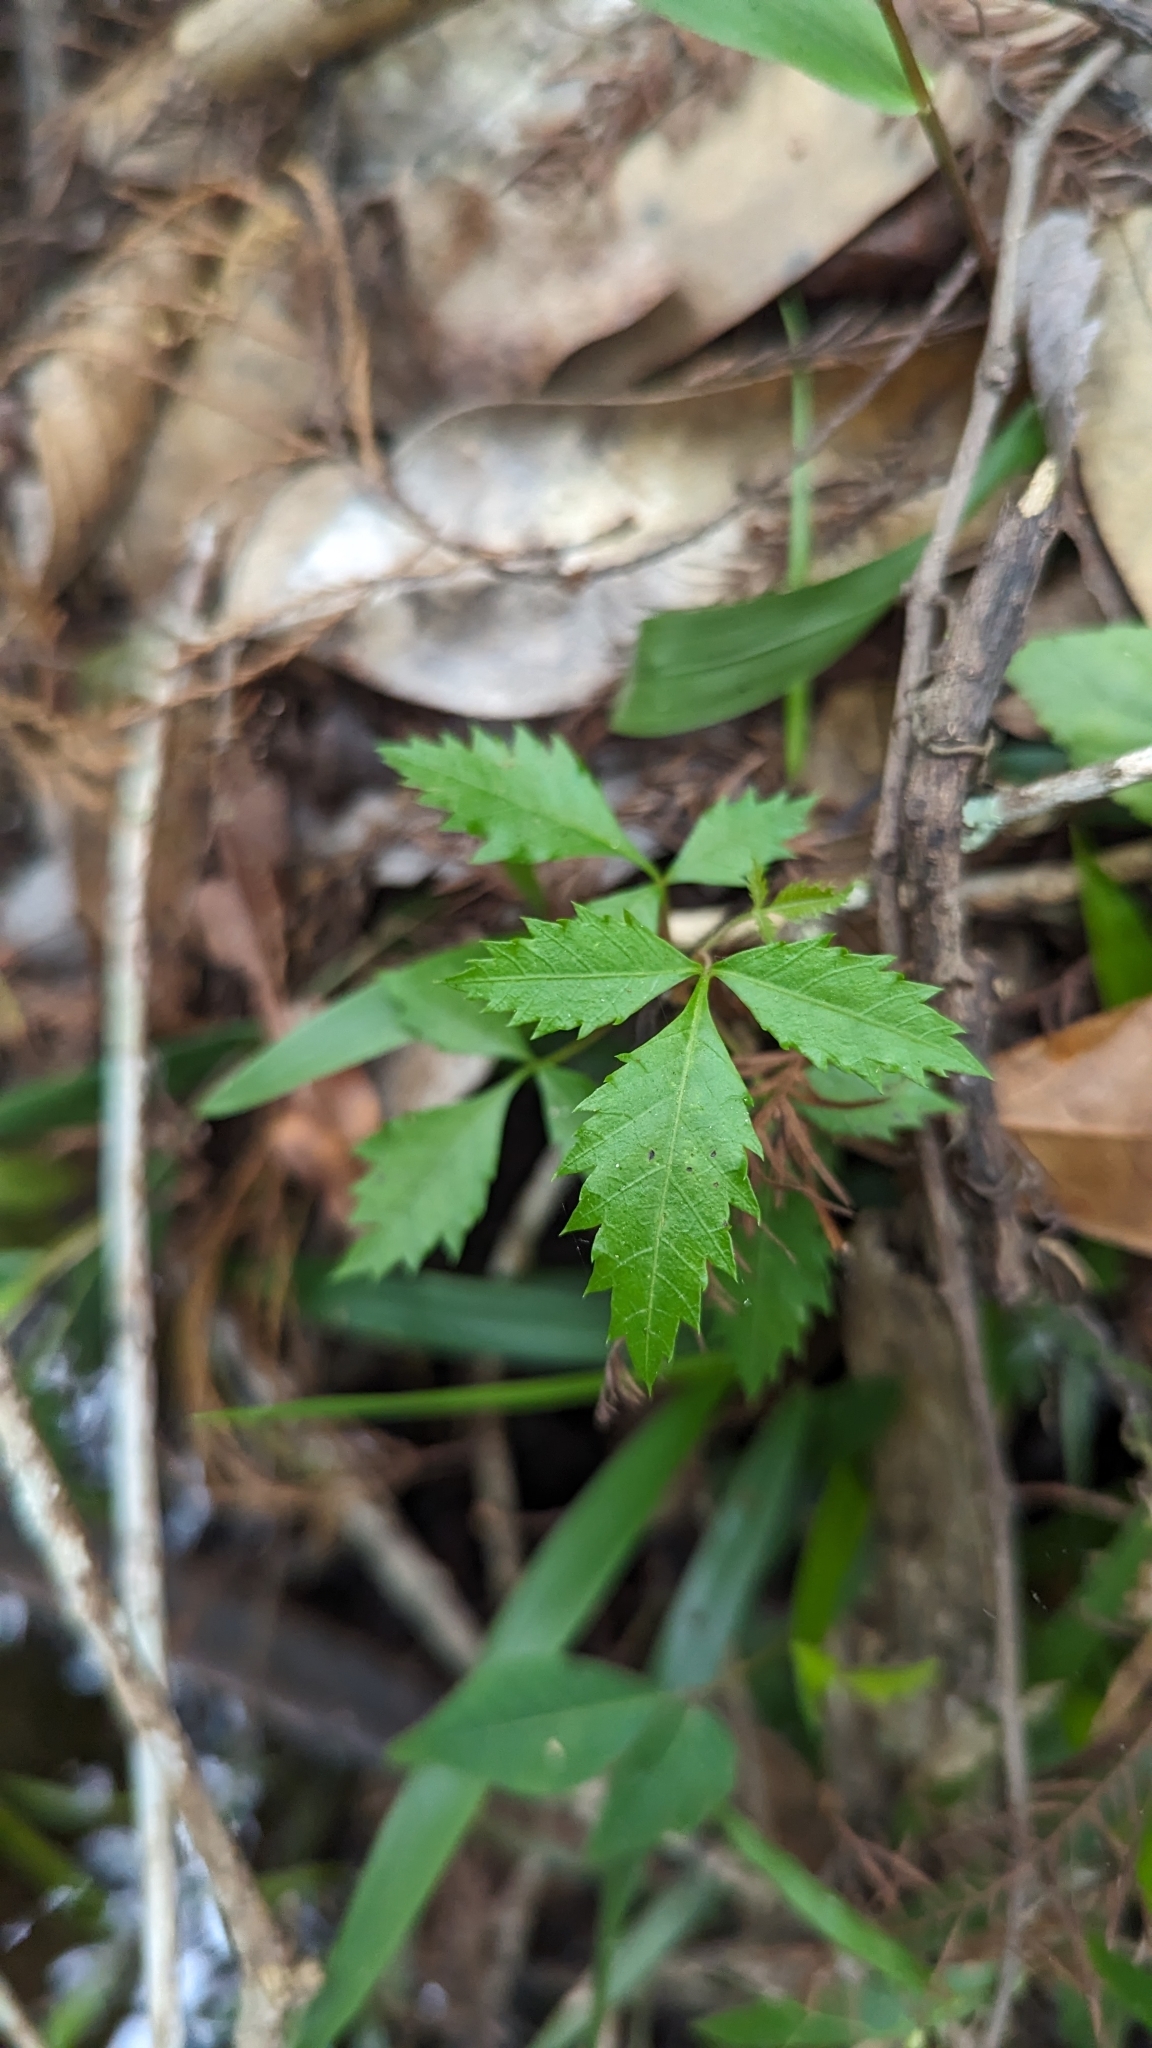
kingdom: Plantae
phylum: Tracheophyta
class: Magnoliopsida
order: Sapindales
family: Anacardiaceae
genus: Schinus
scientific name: Schinus terebinthifolia
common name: Brazilian peppertree
